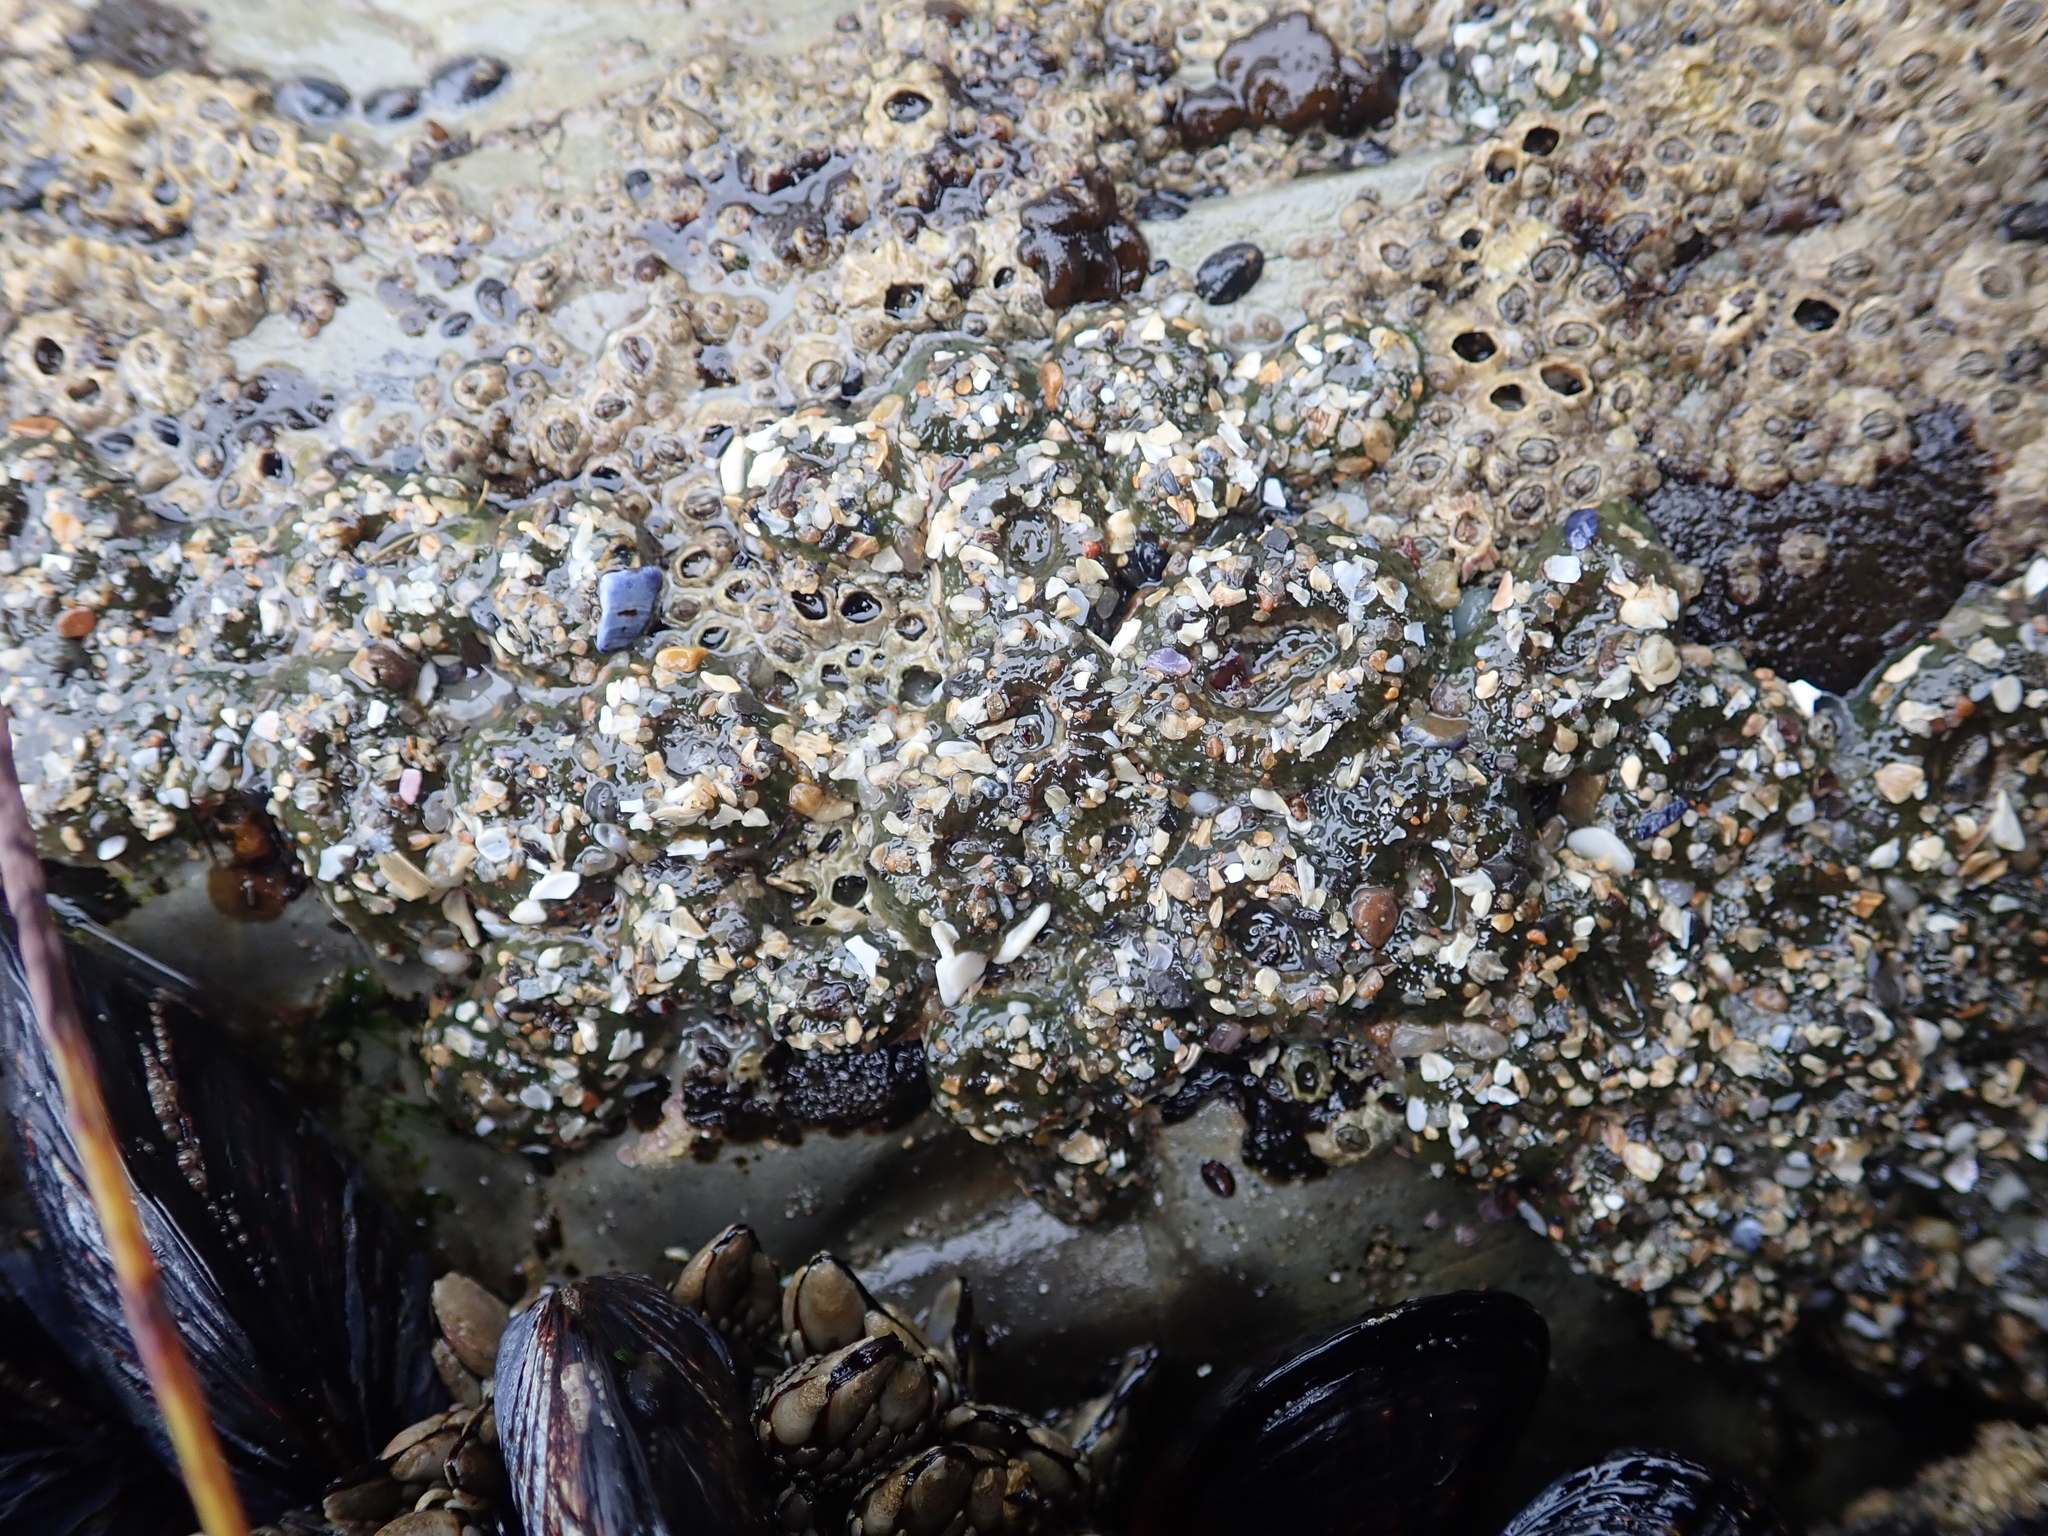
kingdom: Animalia
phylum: Cnidaria
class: Anthozoa
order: Actiniaria
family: Actiniidae
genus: Anthopleura
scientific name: Anthopleura elegantissima
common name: Clonal anemone
